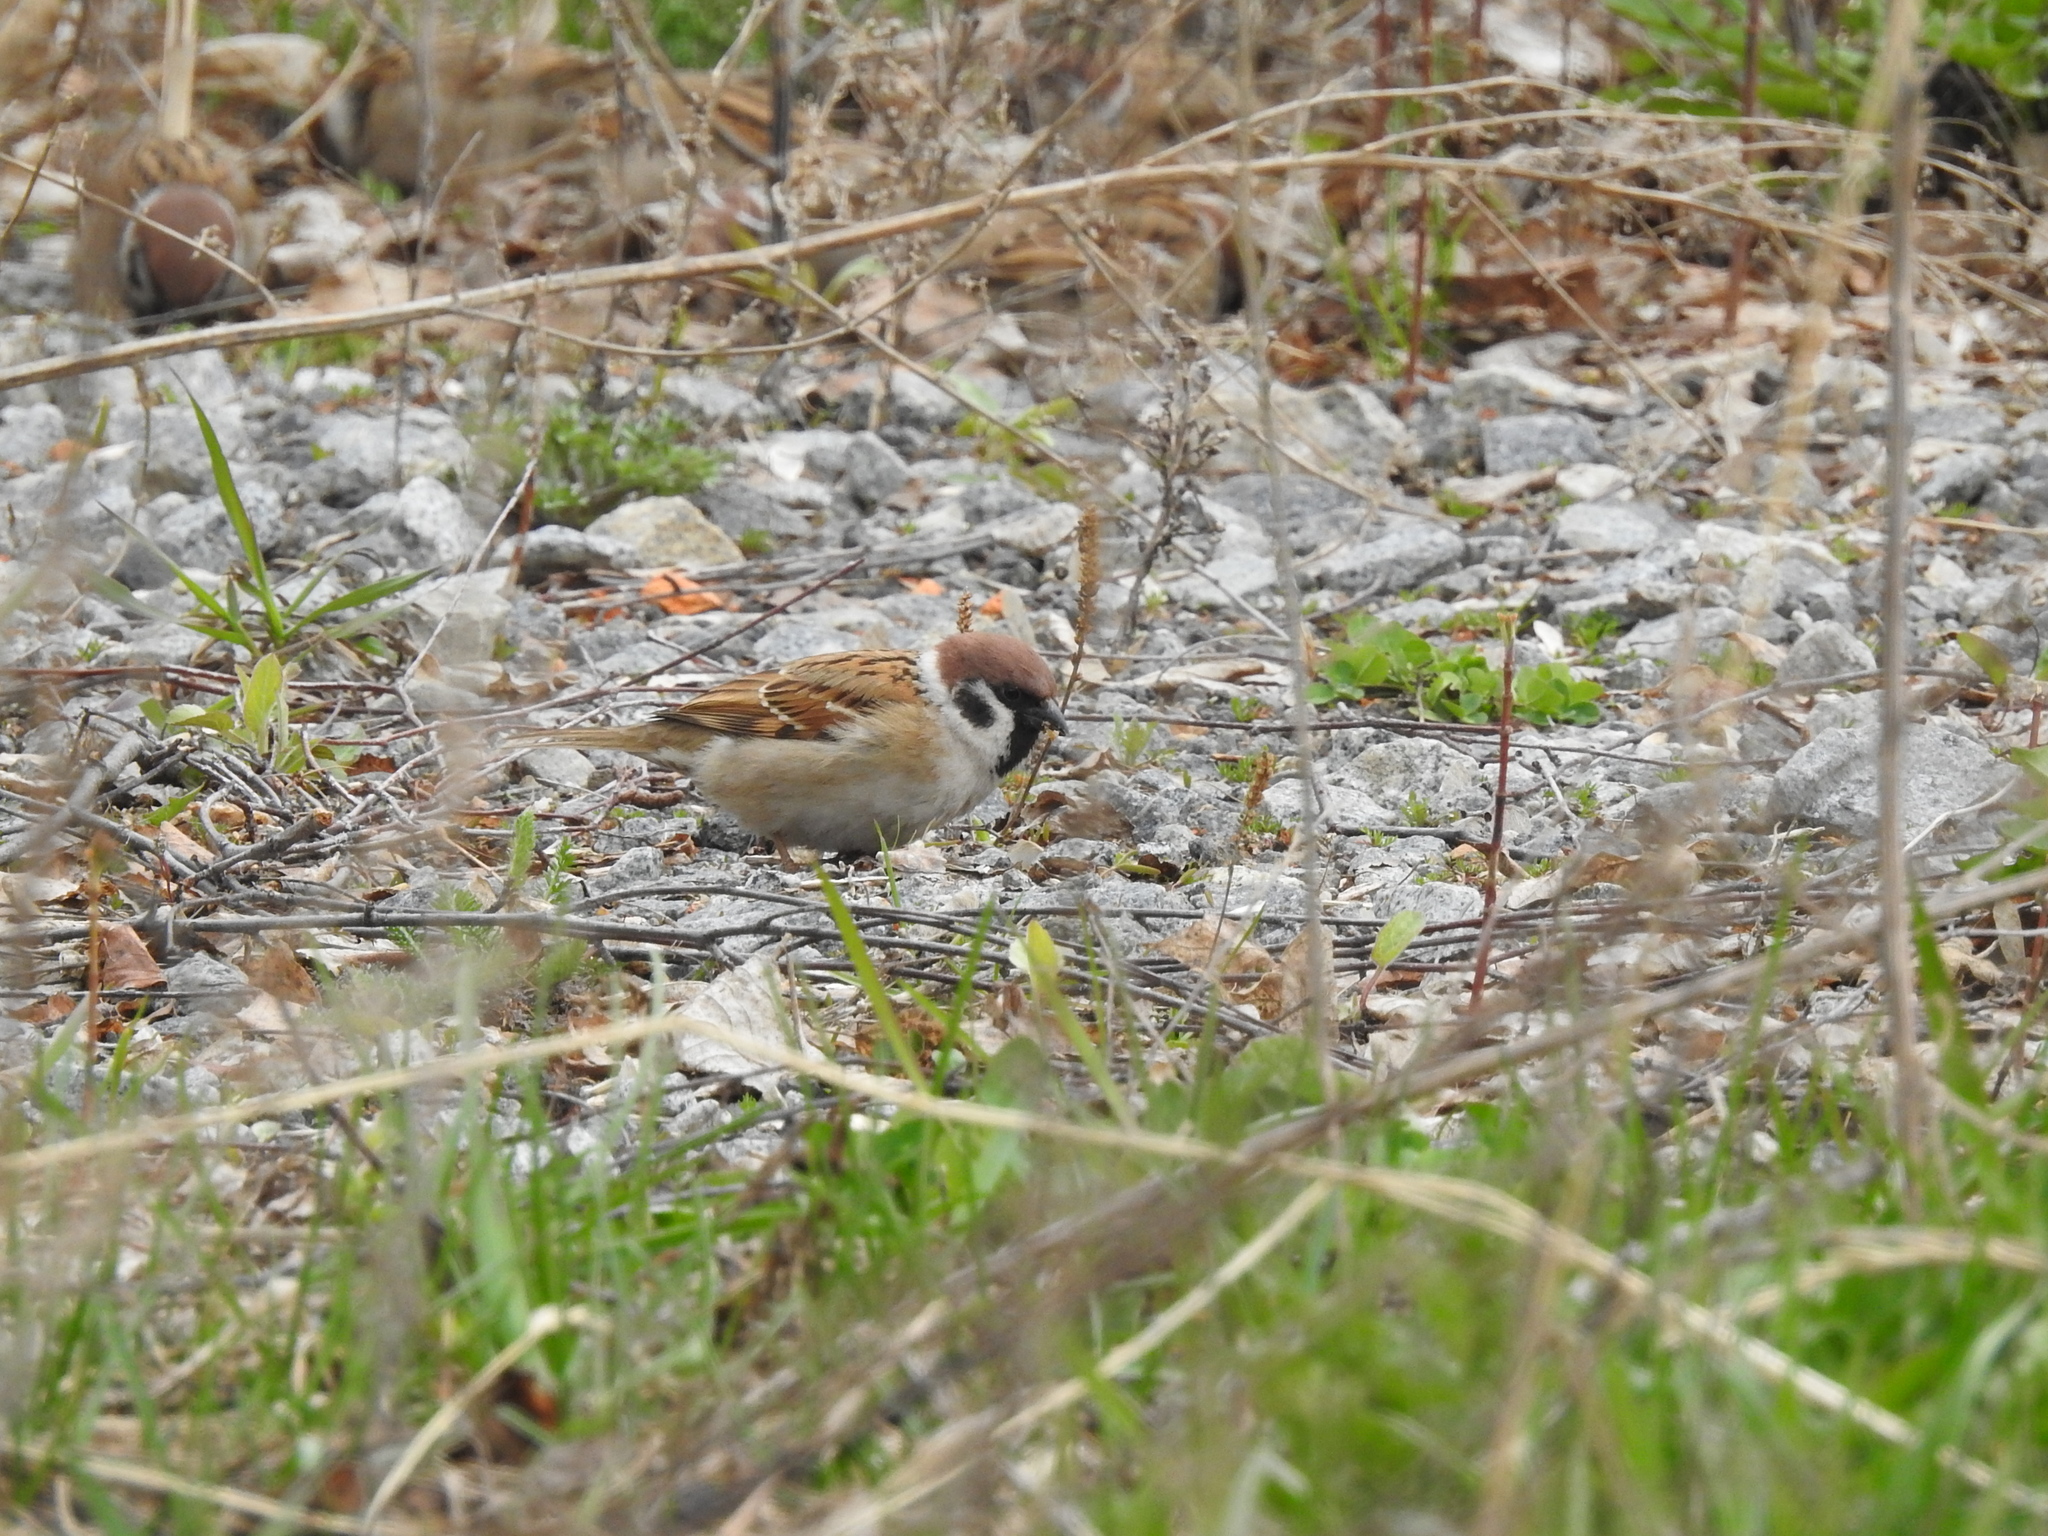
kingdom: Animalia
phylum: Chordata
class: Aves
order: Passeriformes
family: Passeridae
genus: Passer
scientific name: Passer montanus
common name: Eurasian tree sparrow
